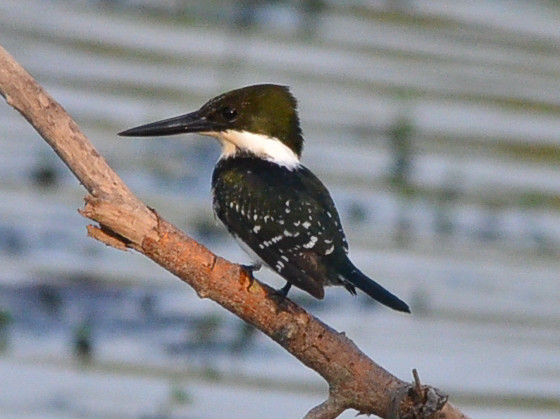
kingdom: Animalia
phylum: Chordata
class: Aves
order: Coraciiformes
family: Alcedinidae
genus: Chloroceryle
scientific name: Chloroceryle americana
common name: Green kingfisher
